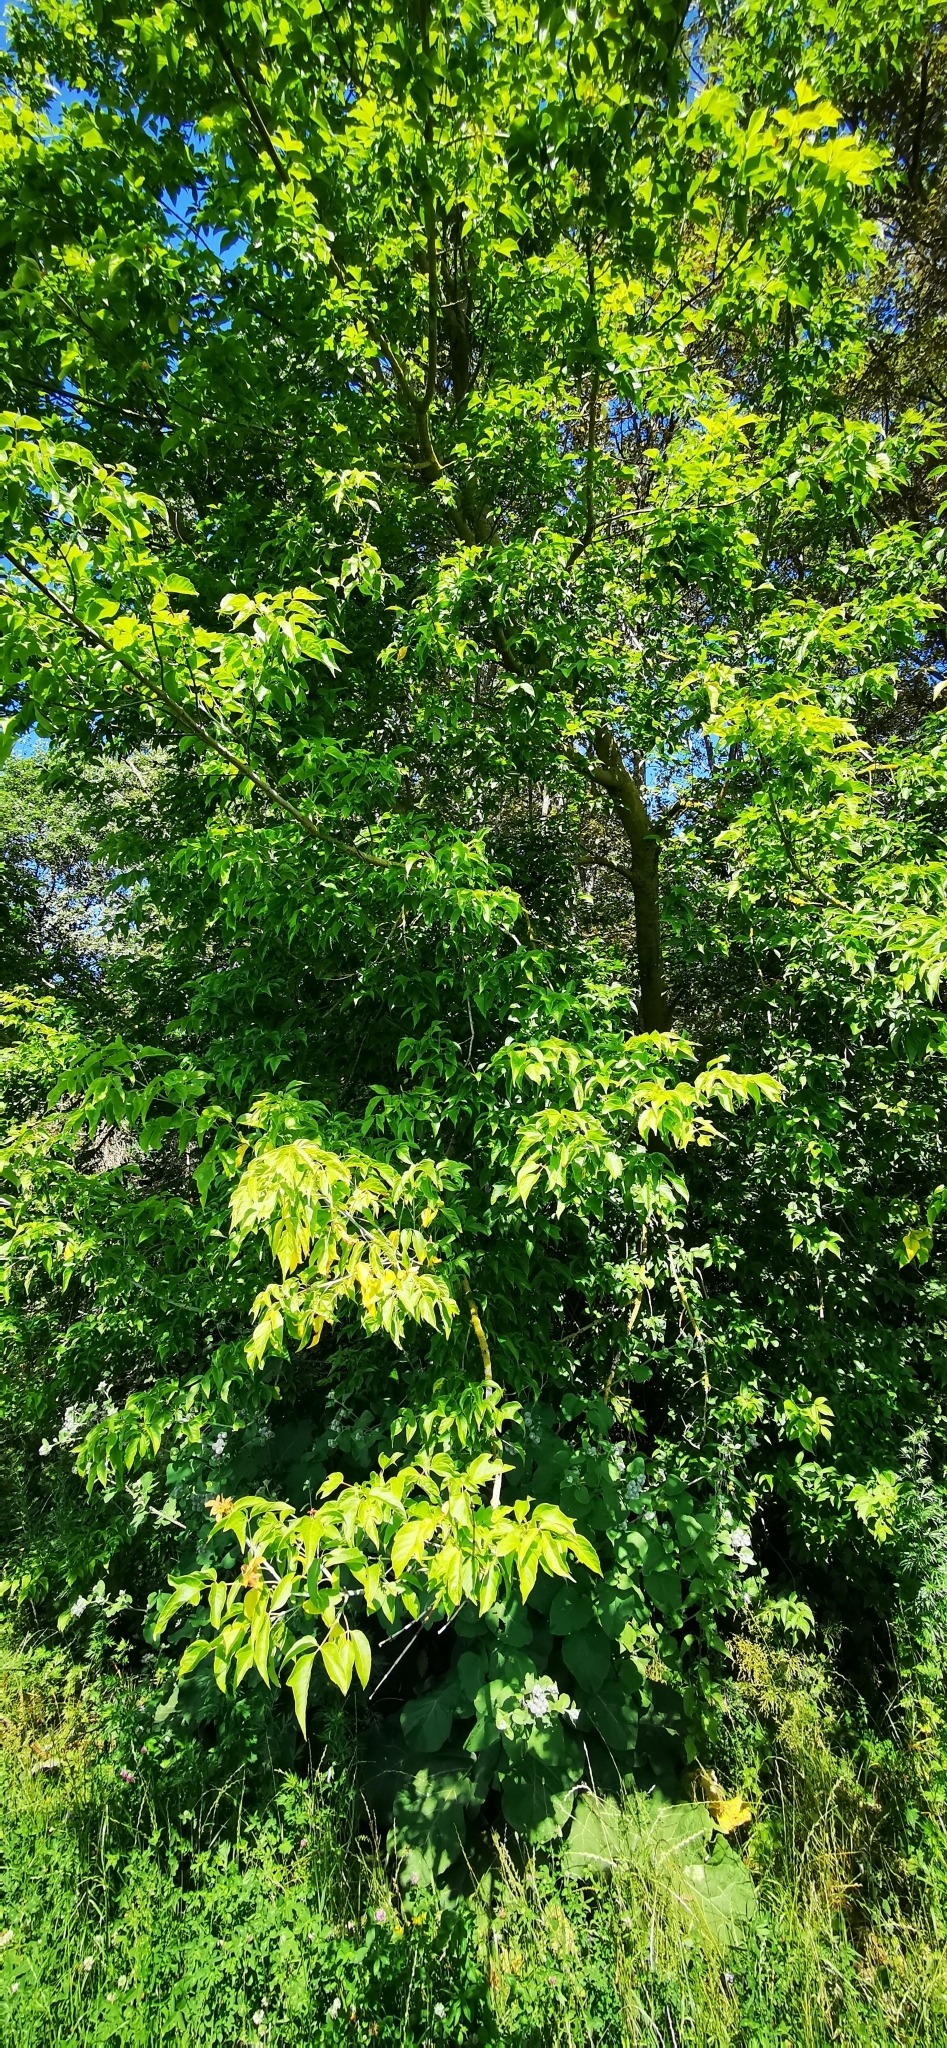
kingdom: Plantae
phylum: Tracheophyta
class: Magnoliopsida
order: Sapindales
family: Sapindaceae
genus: Acer
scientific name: Acer negundo
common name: Ashleaf maple
